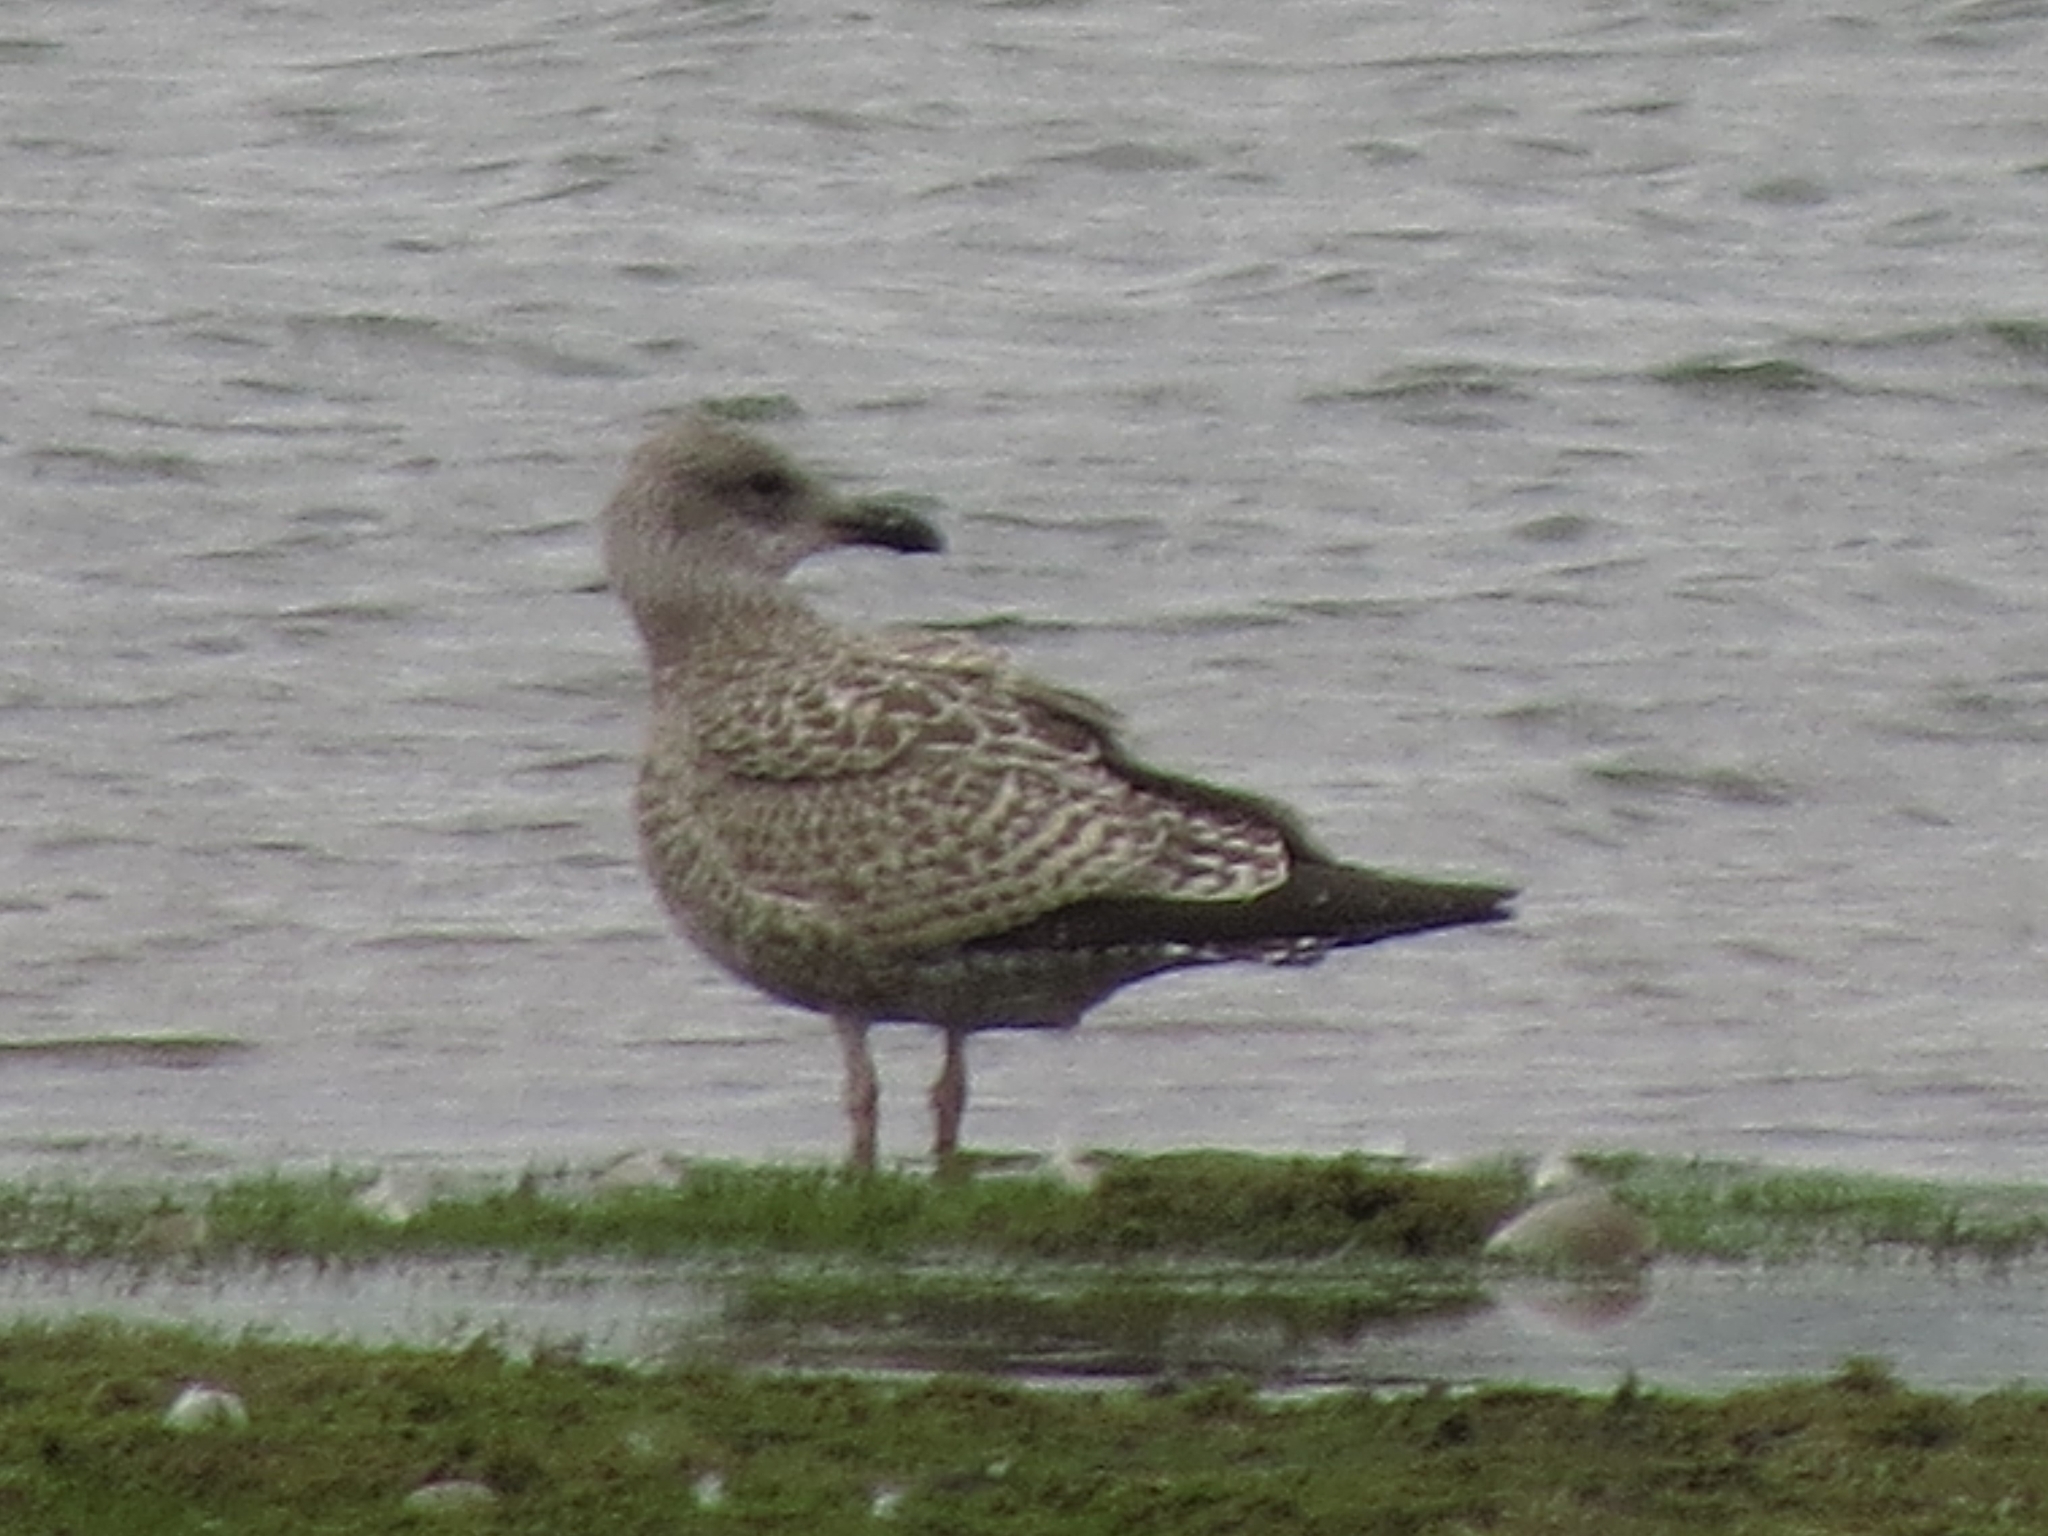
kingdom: Animalia
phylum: Chordata
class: Aves
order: Charadriiformes
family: Laridae
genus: Larus
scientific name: Larus argentatus
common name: Herring gull
